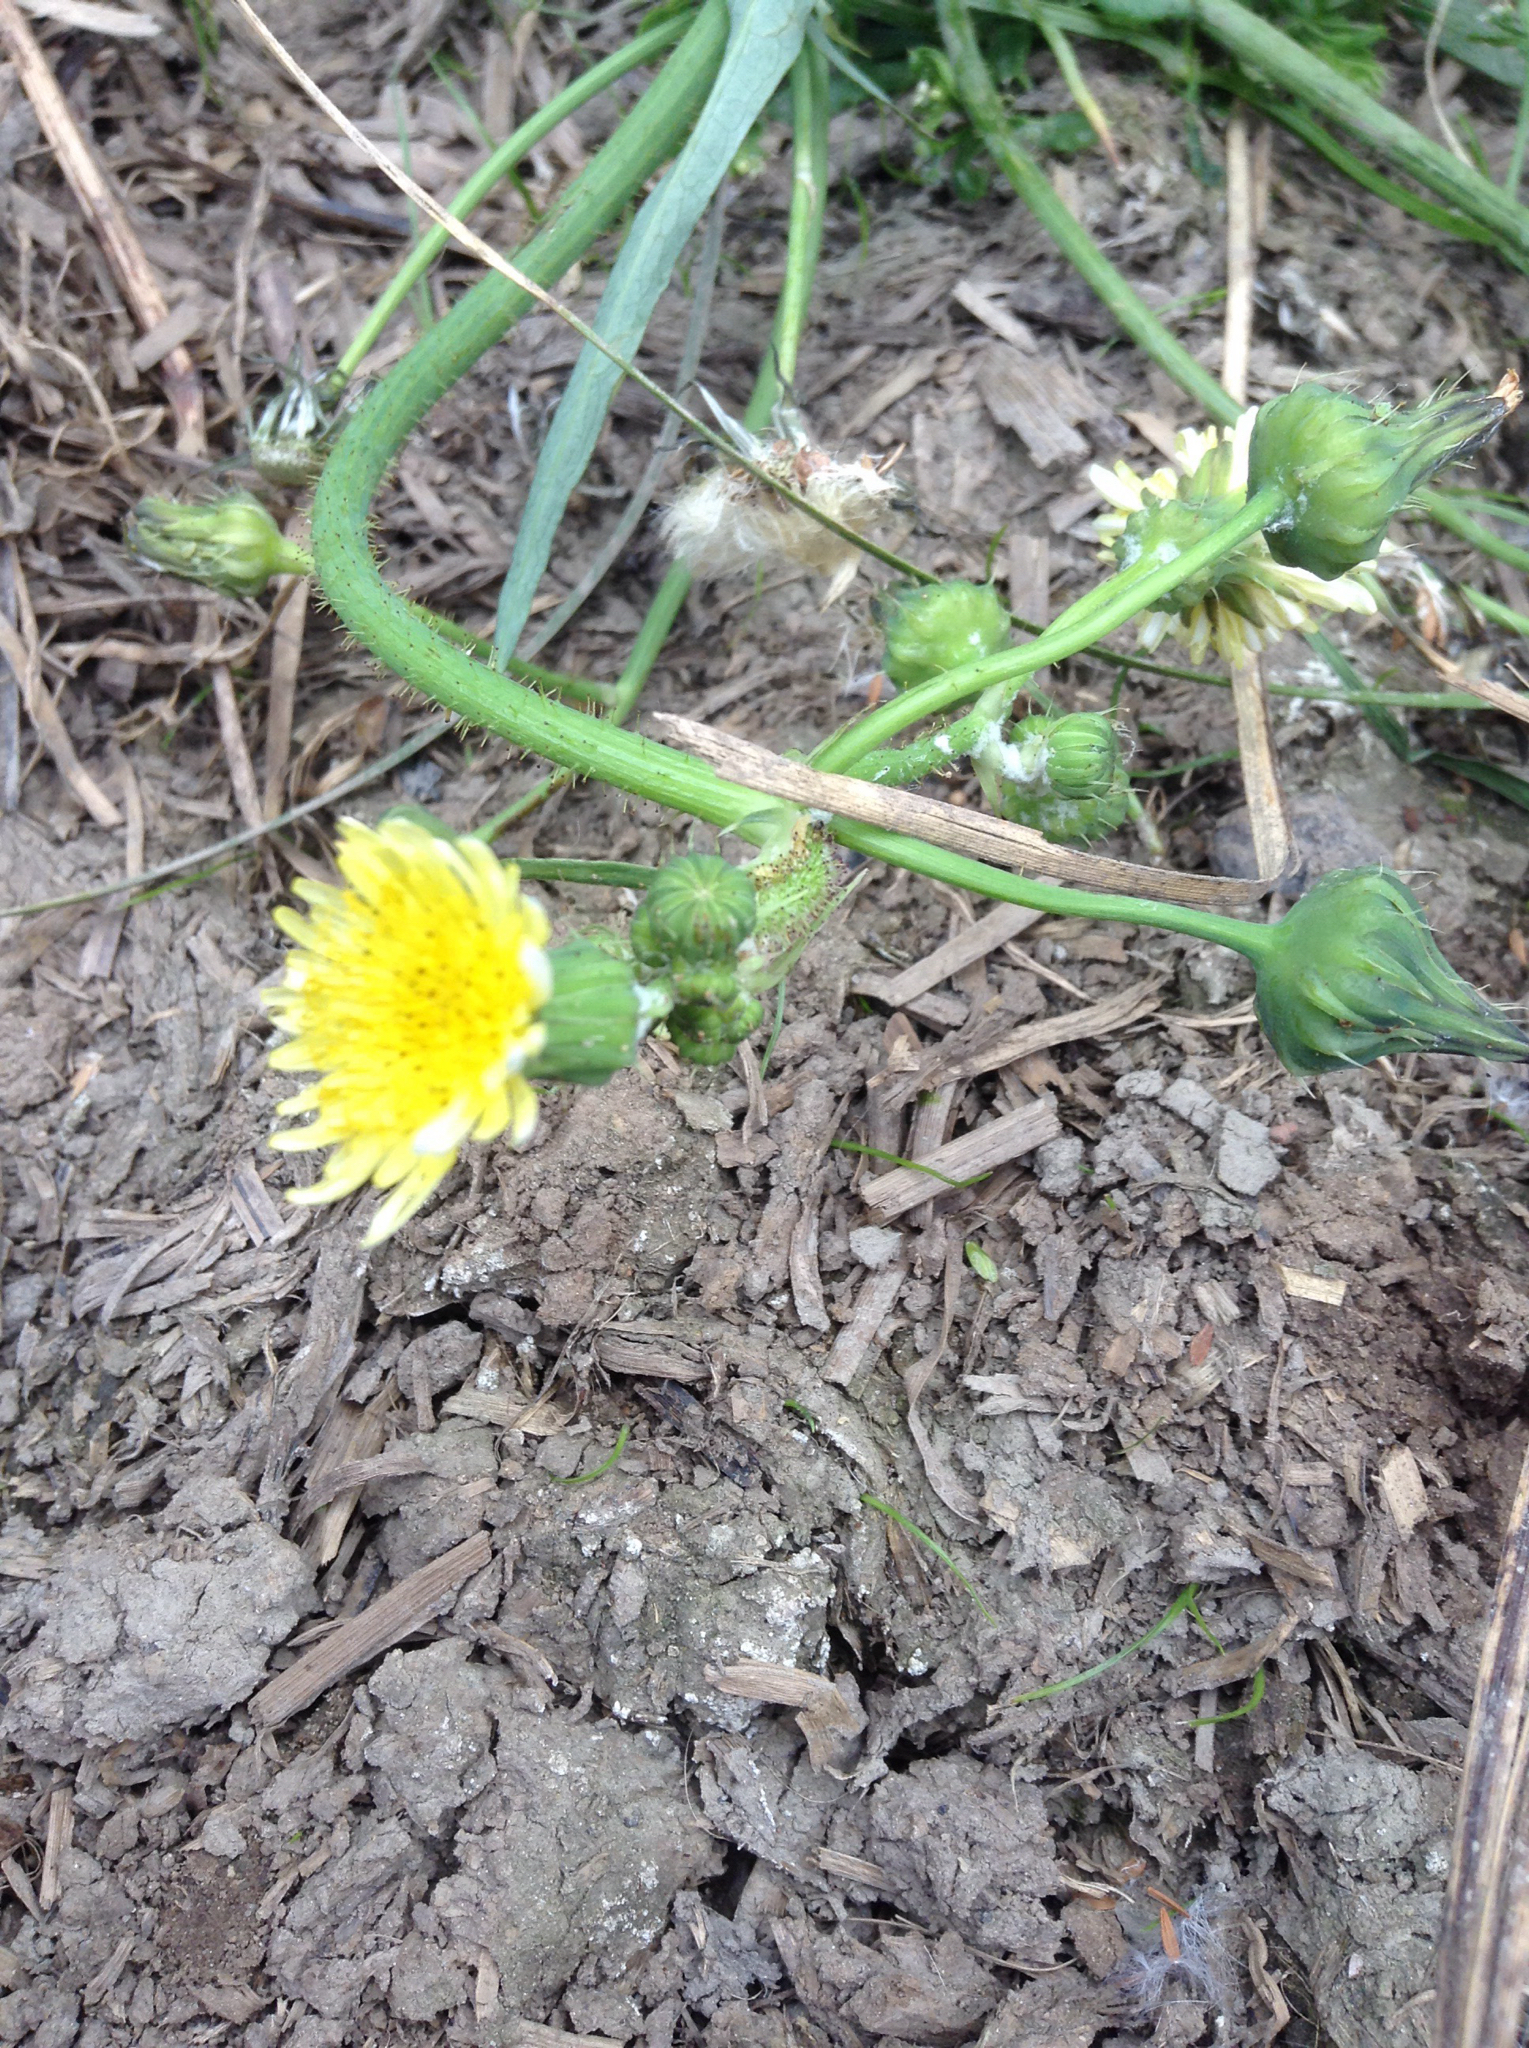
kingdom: Plantae
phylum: Tracheophyta
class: Magnoliopsida
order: Asterales
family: Asteraceae
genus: Sonchus
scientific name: Sonchus oleraceus
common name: Common sowthistle
